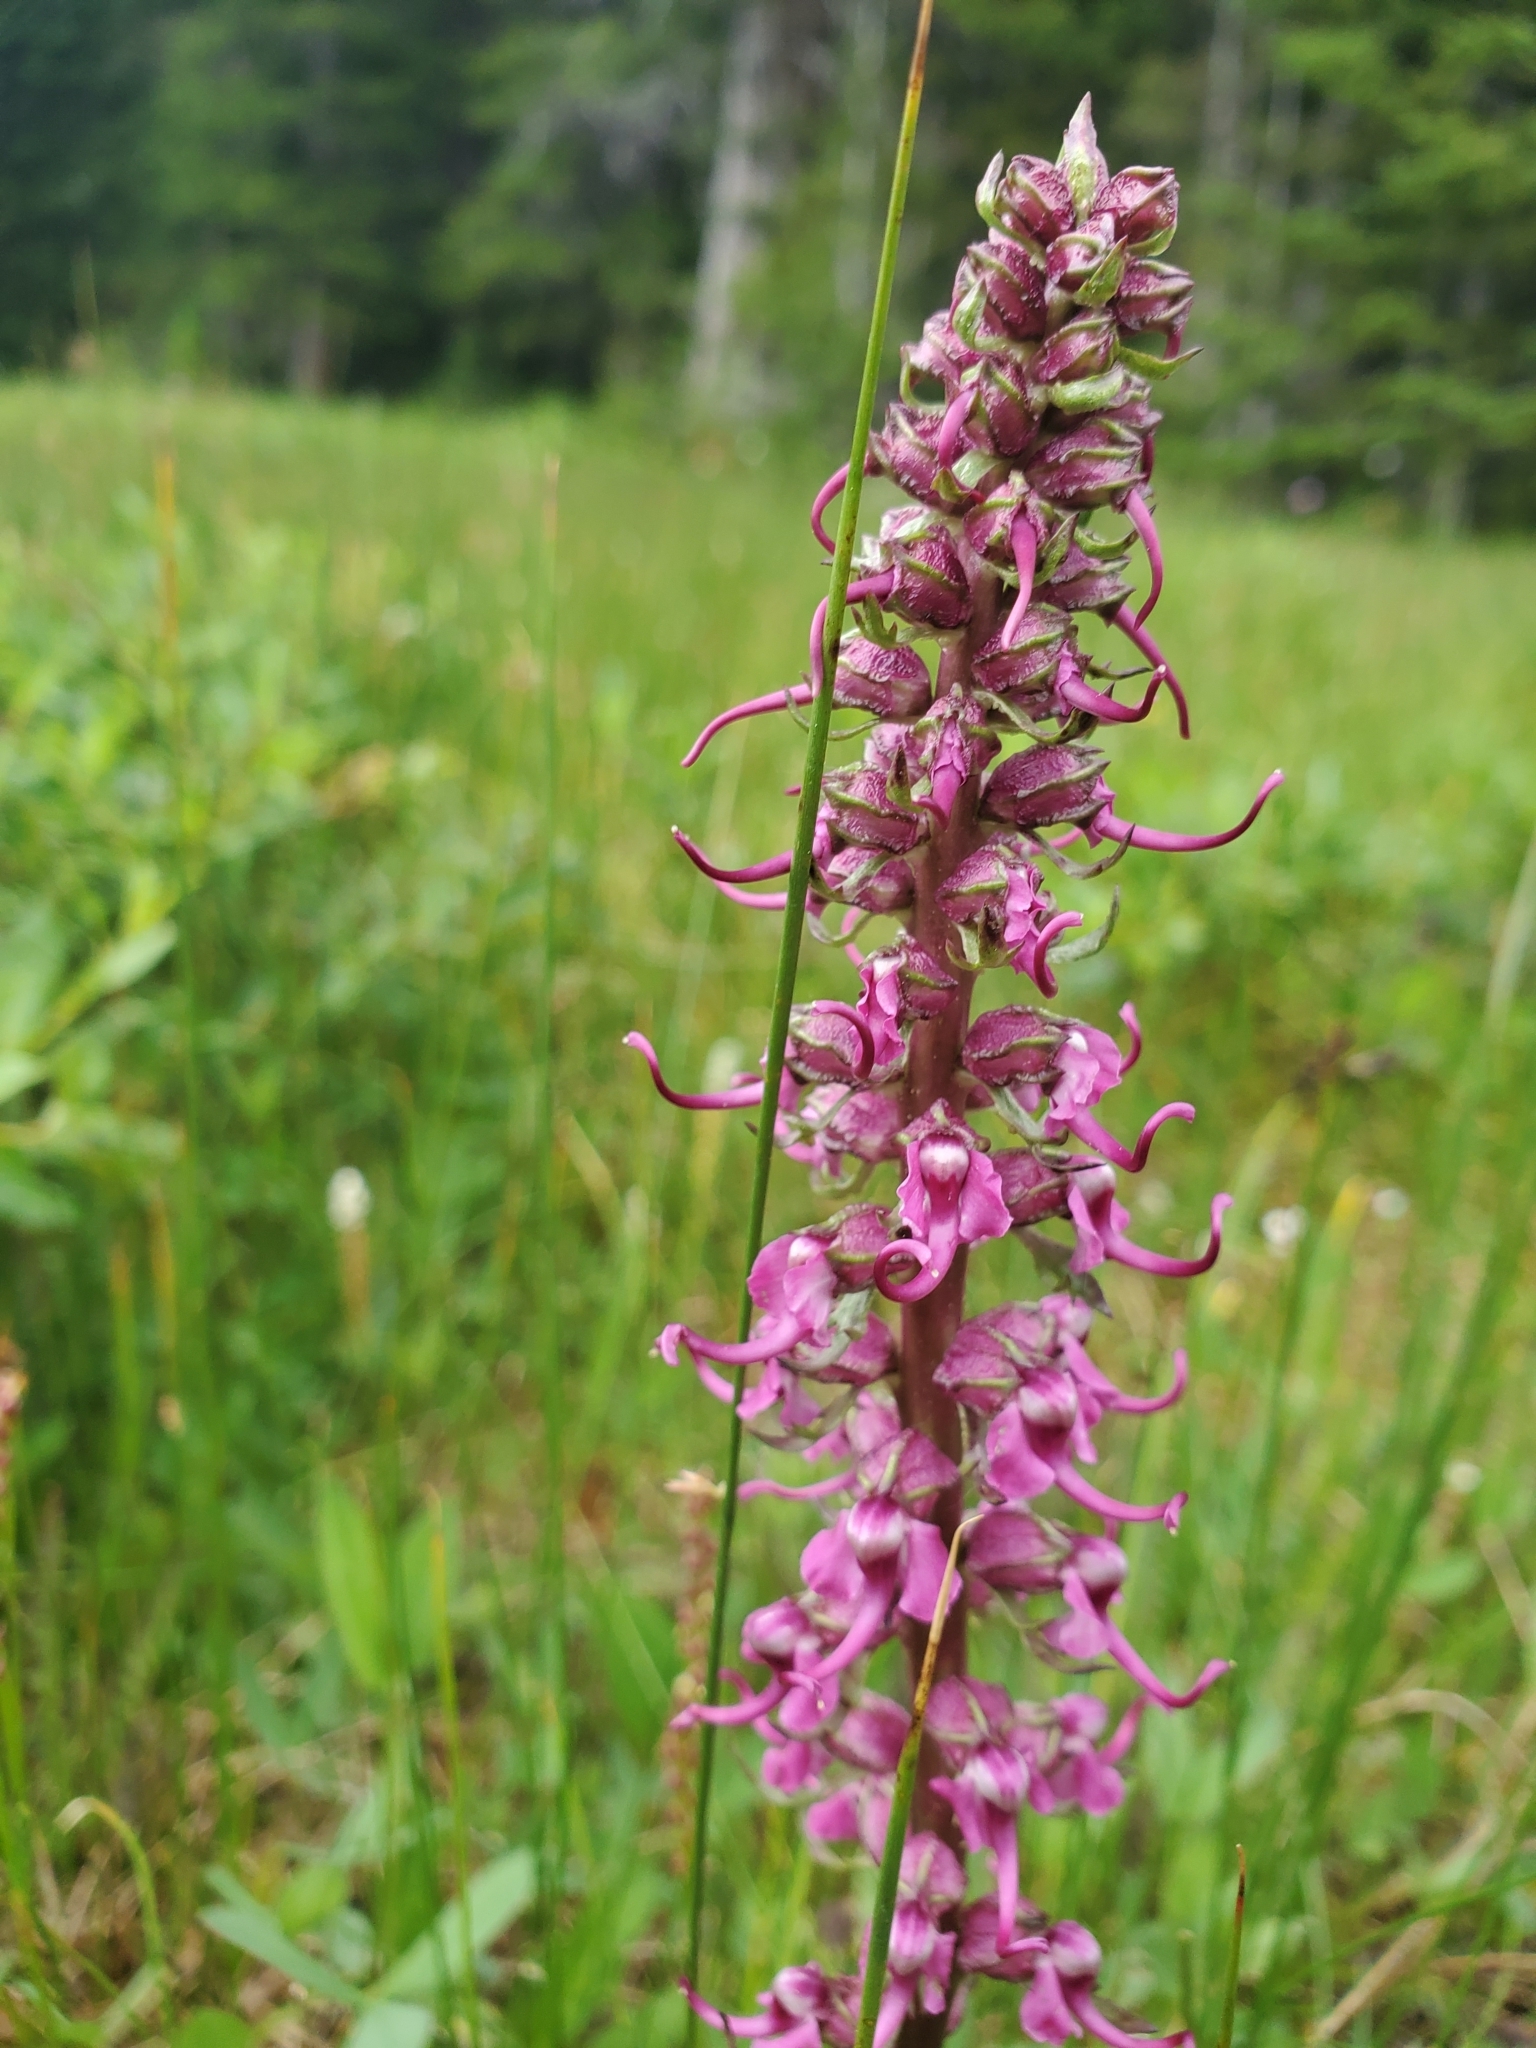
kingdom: Plantae
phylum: Tracheophyta
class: Magnoliopsida
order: Lamiales
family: Orobanchaceae
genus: Pedicularis
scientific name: Pedicularis groenlandica
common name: Elephant's-head
